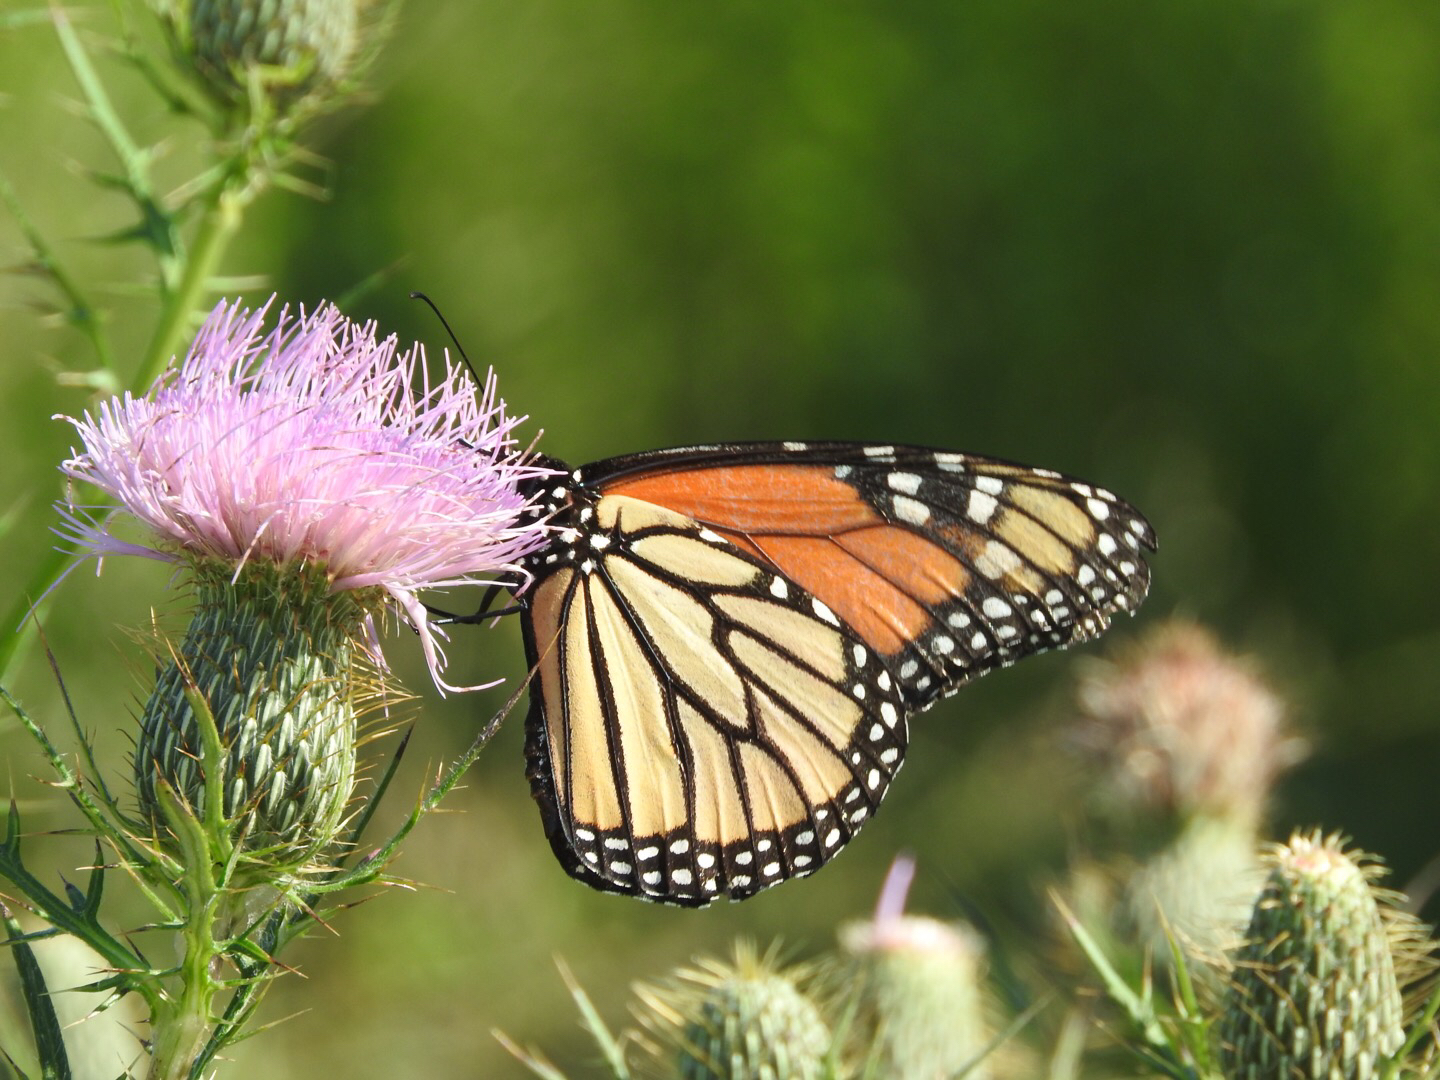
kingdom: Animalia
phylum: Arthropoda
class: Insecta
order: Lepidoptera
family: Nymphalidae
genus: Danaus
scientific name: Danaus plexippus
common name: Monarch
